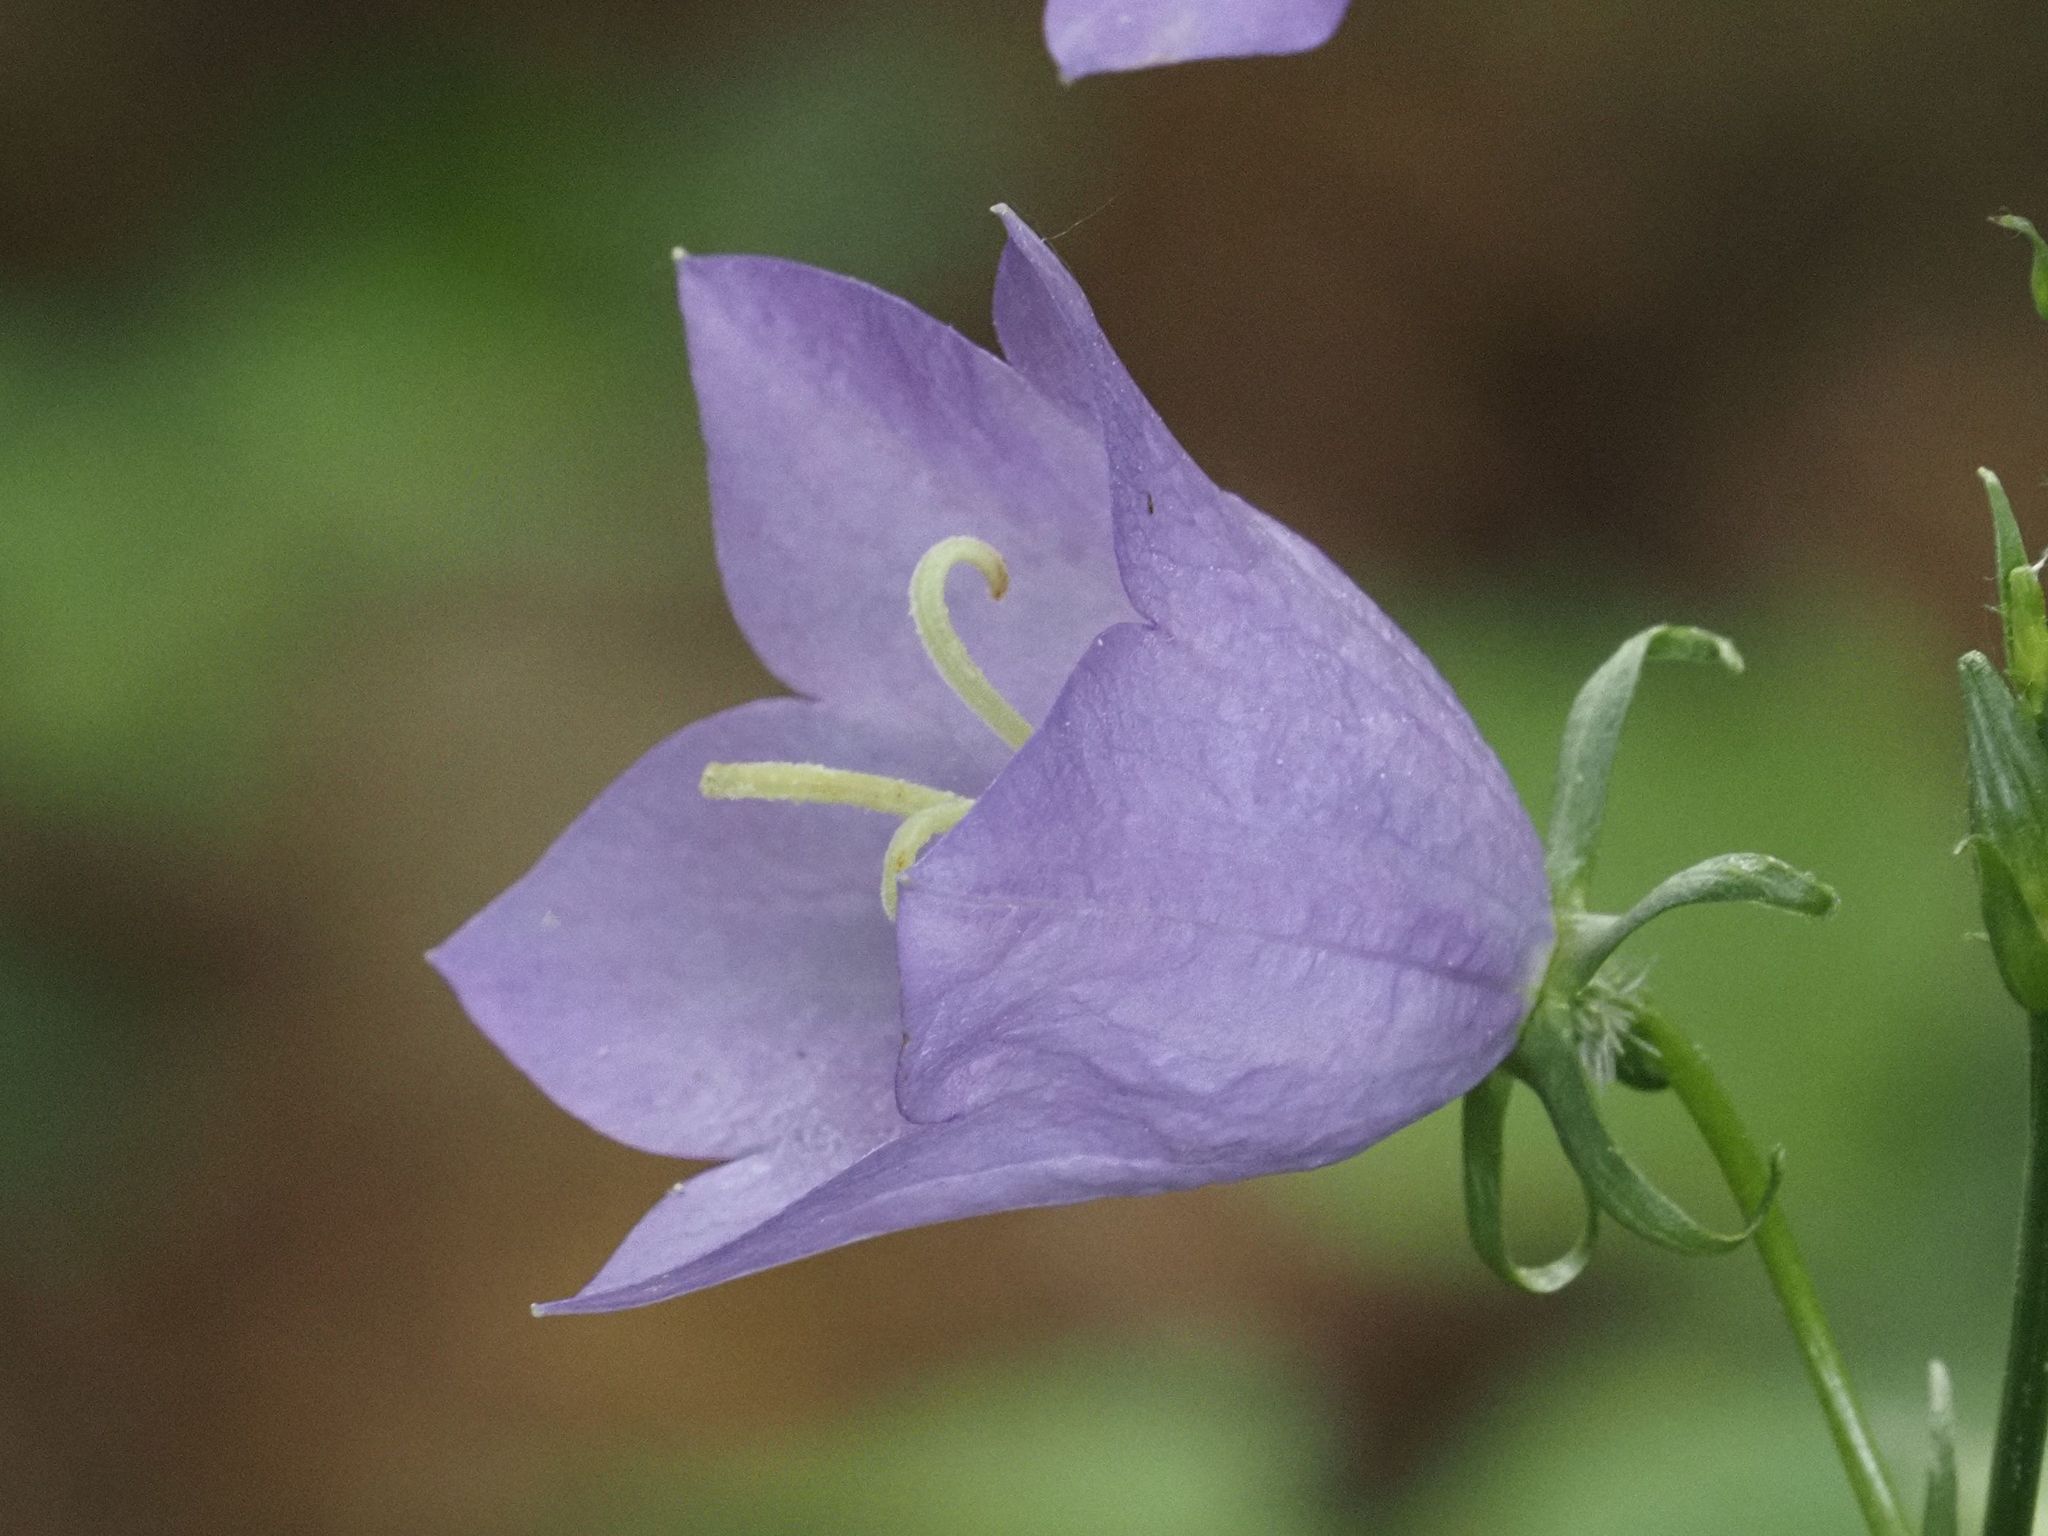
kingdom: Plantae
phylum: Tracheophyta
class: Magnoliopsida
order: Asterales
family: Campanulaceae
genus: Campanula
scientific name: Campanula persicifolia
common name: Peach-leaved bellflower
